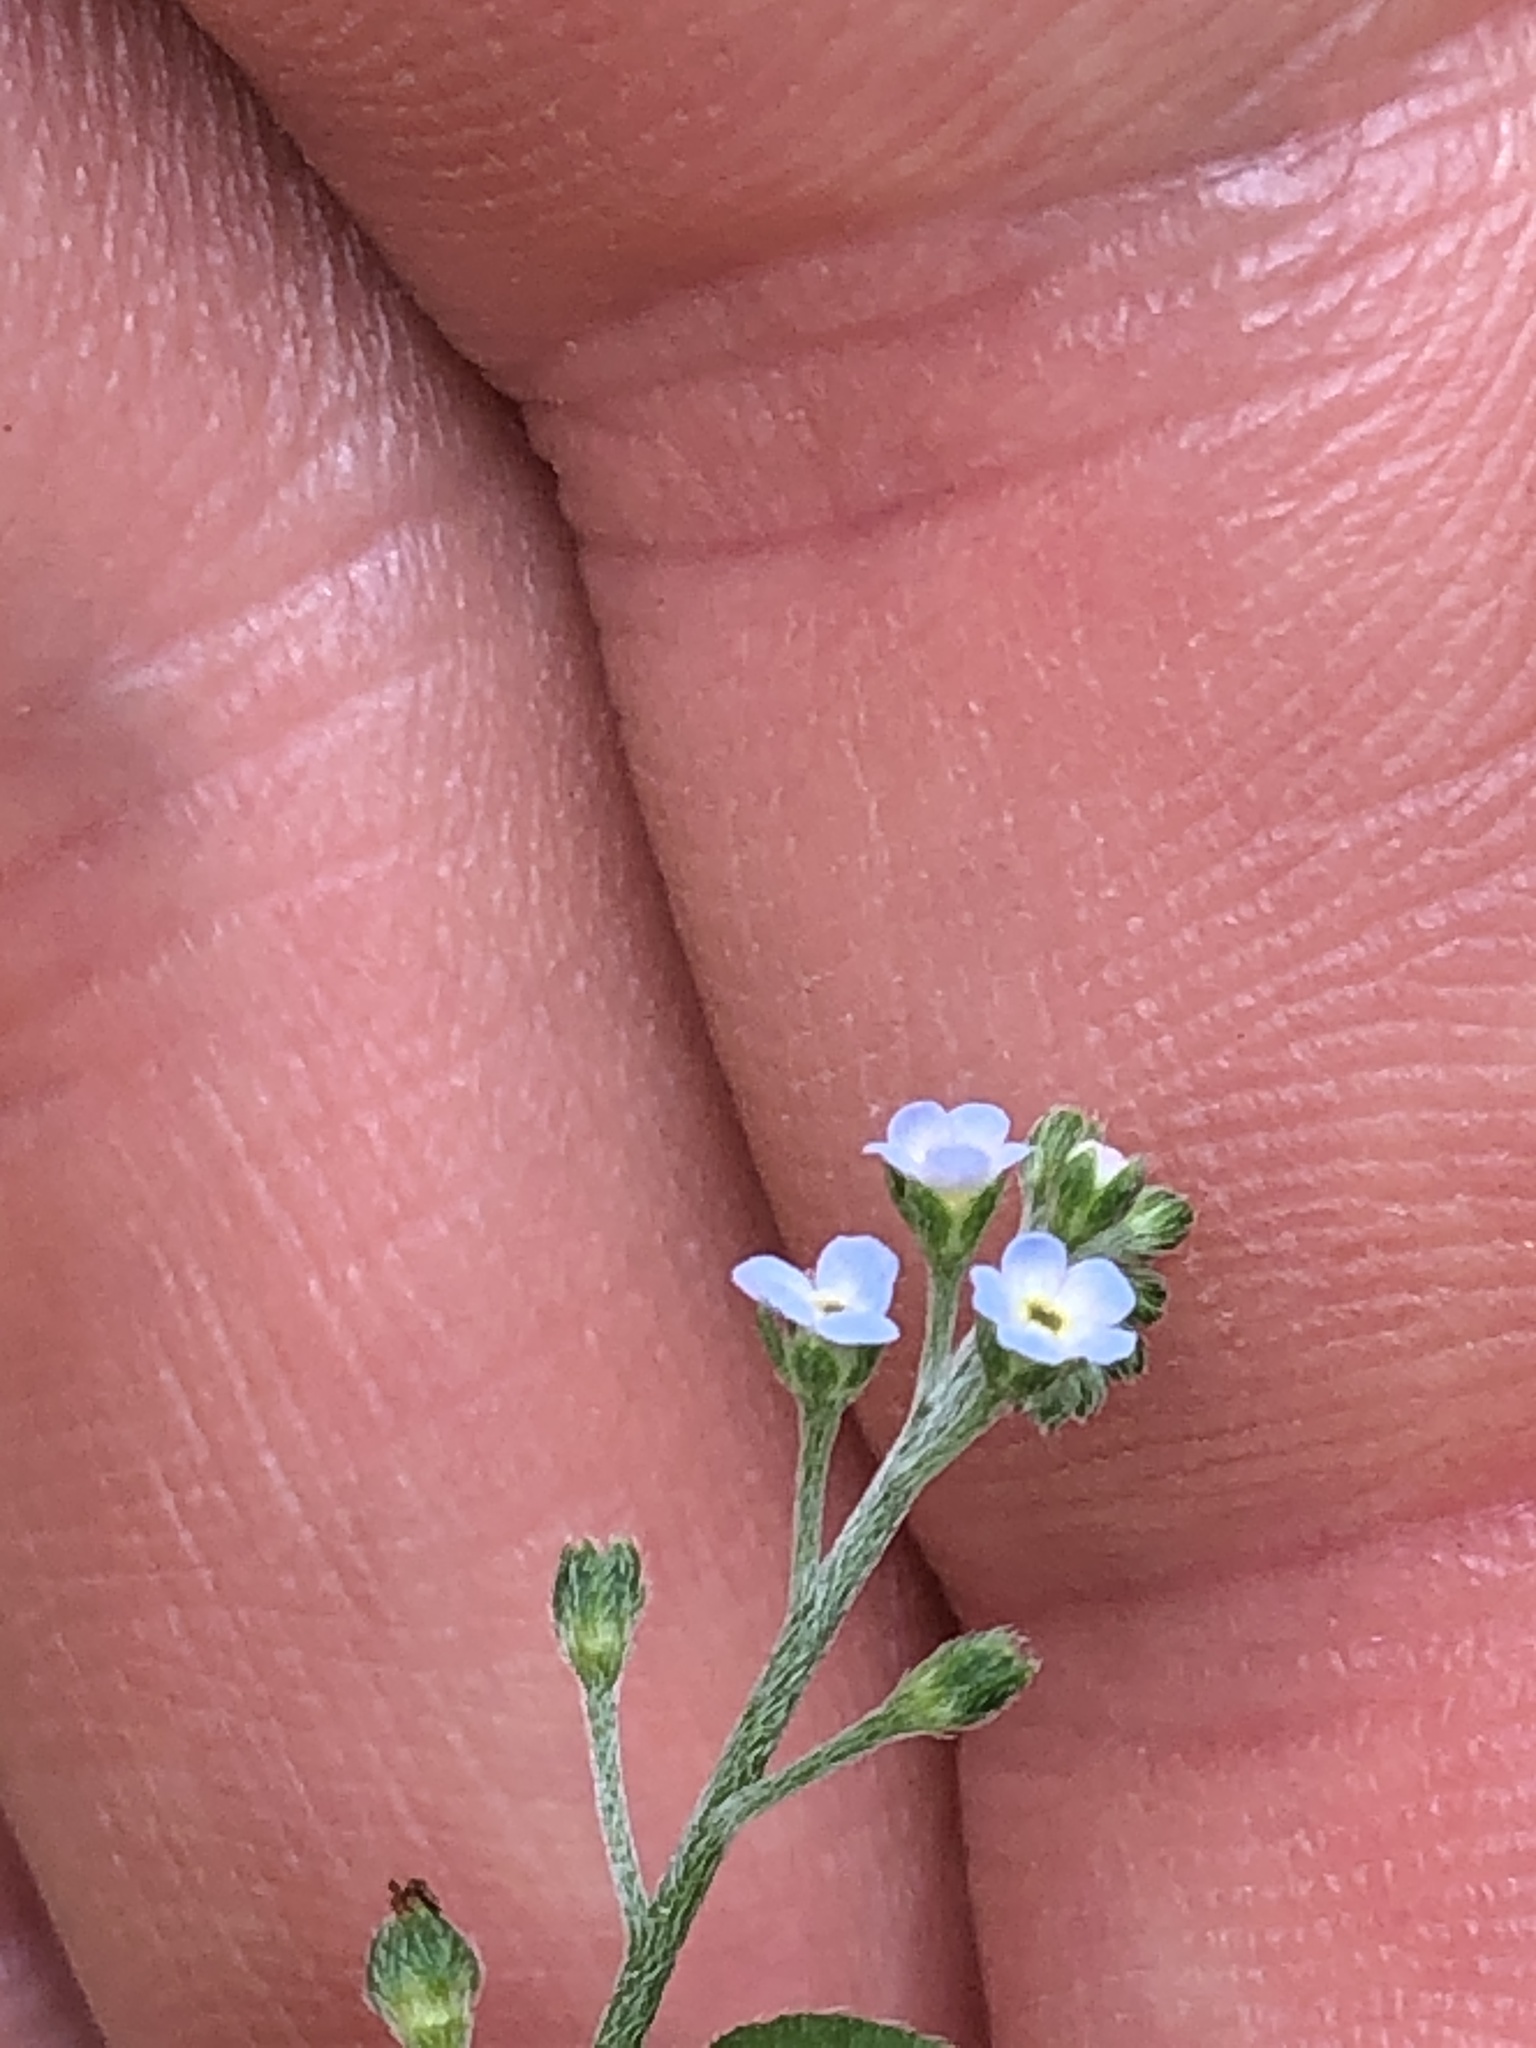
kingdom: Plantae
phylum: Tracheophyta
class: Magnoliopsida
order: Boraginales
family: Boraginaceae
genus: Trigonotis
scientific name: Trigonotis peduncularis
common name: Cucumber herb
